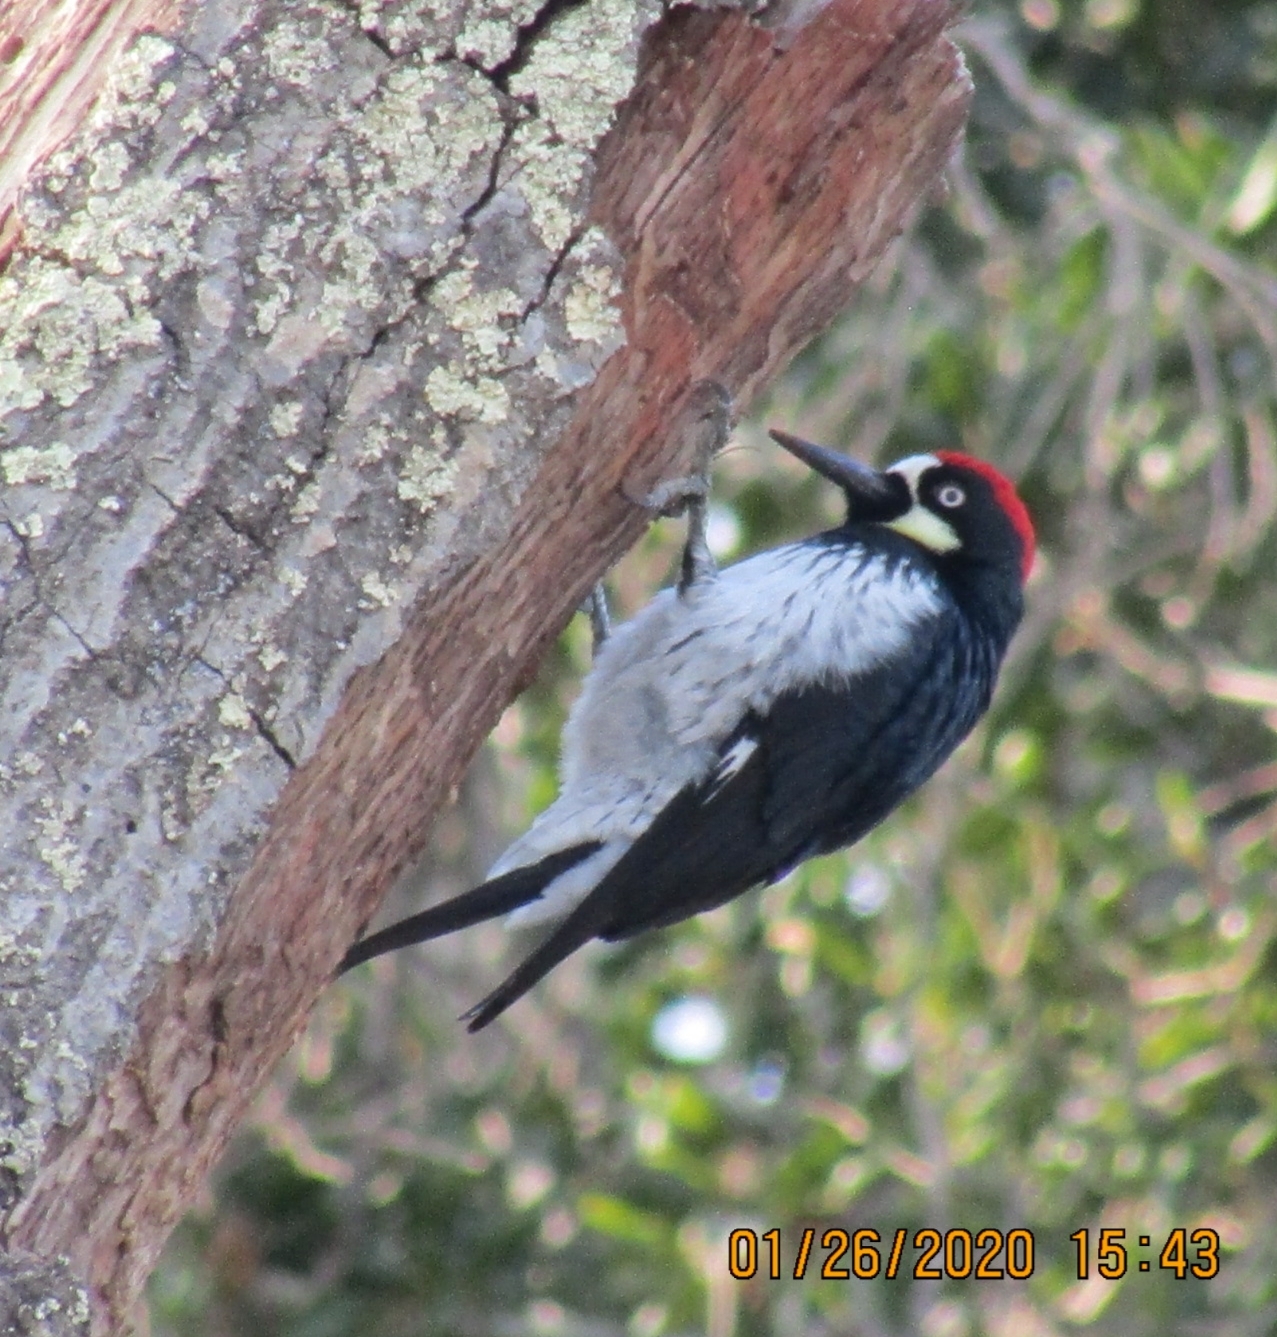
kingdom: Animalia
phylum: Chordata
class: Aves
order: Piciformes
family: Picidae
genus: Melanerpes
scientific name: Melanerpes formicivorus
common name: Acorn woodpecker
